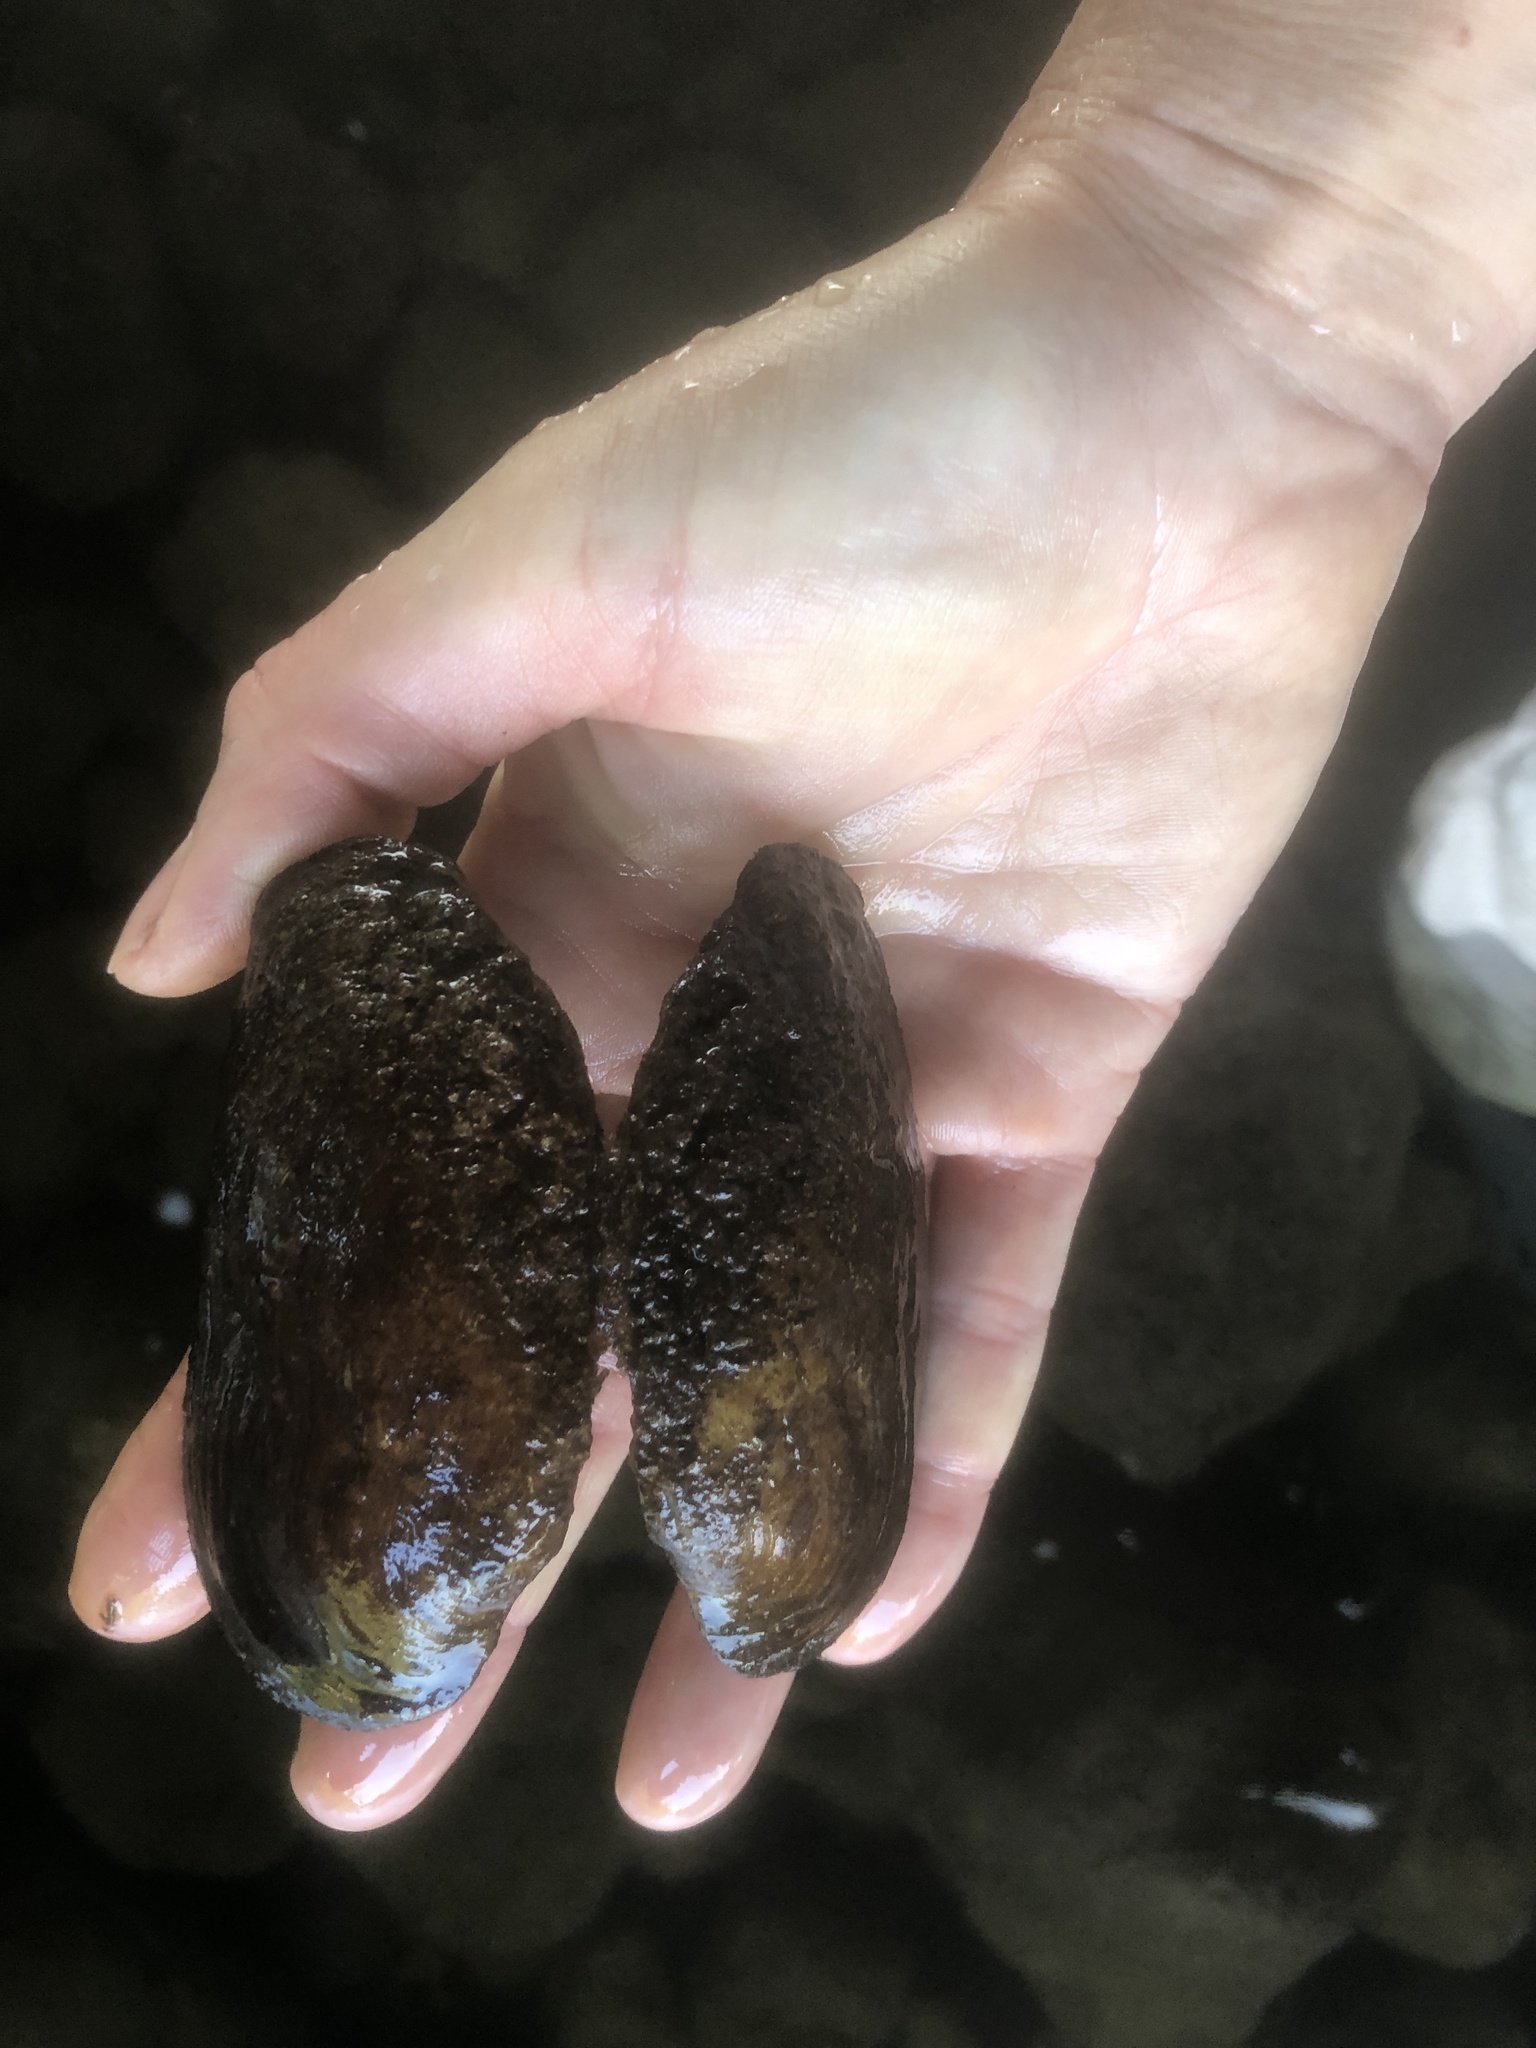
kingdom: Animalia
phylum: Mollusca
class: Bivalvia
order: Unionida
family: Unionidae
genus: Lasmigona
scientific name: Lasmigona costata
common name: Flutedshell
